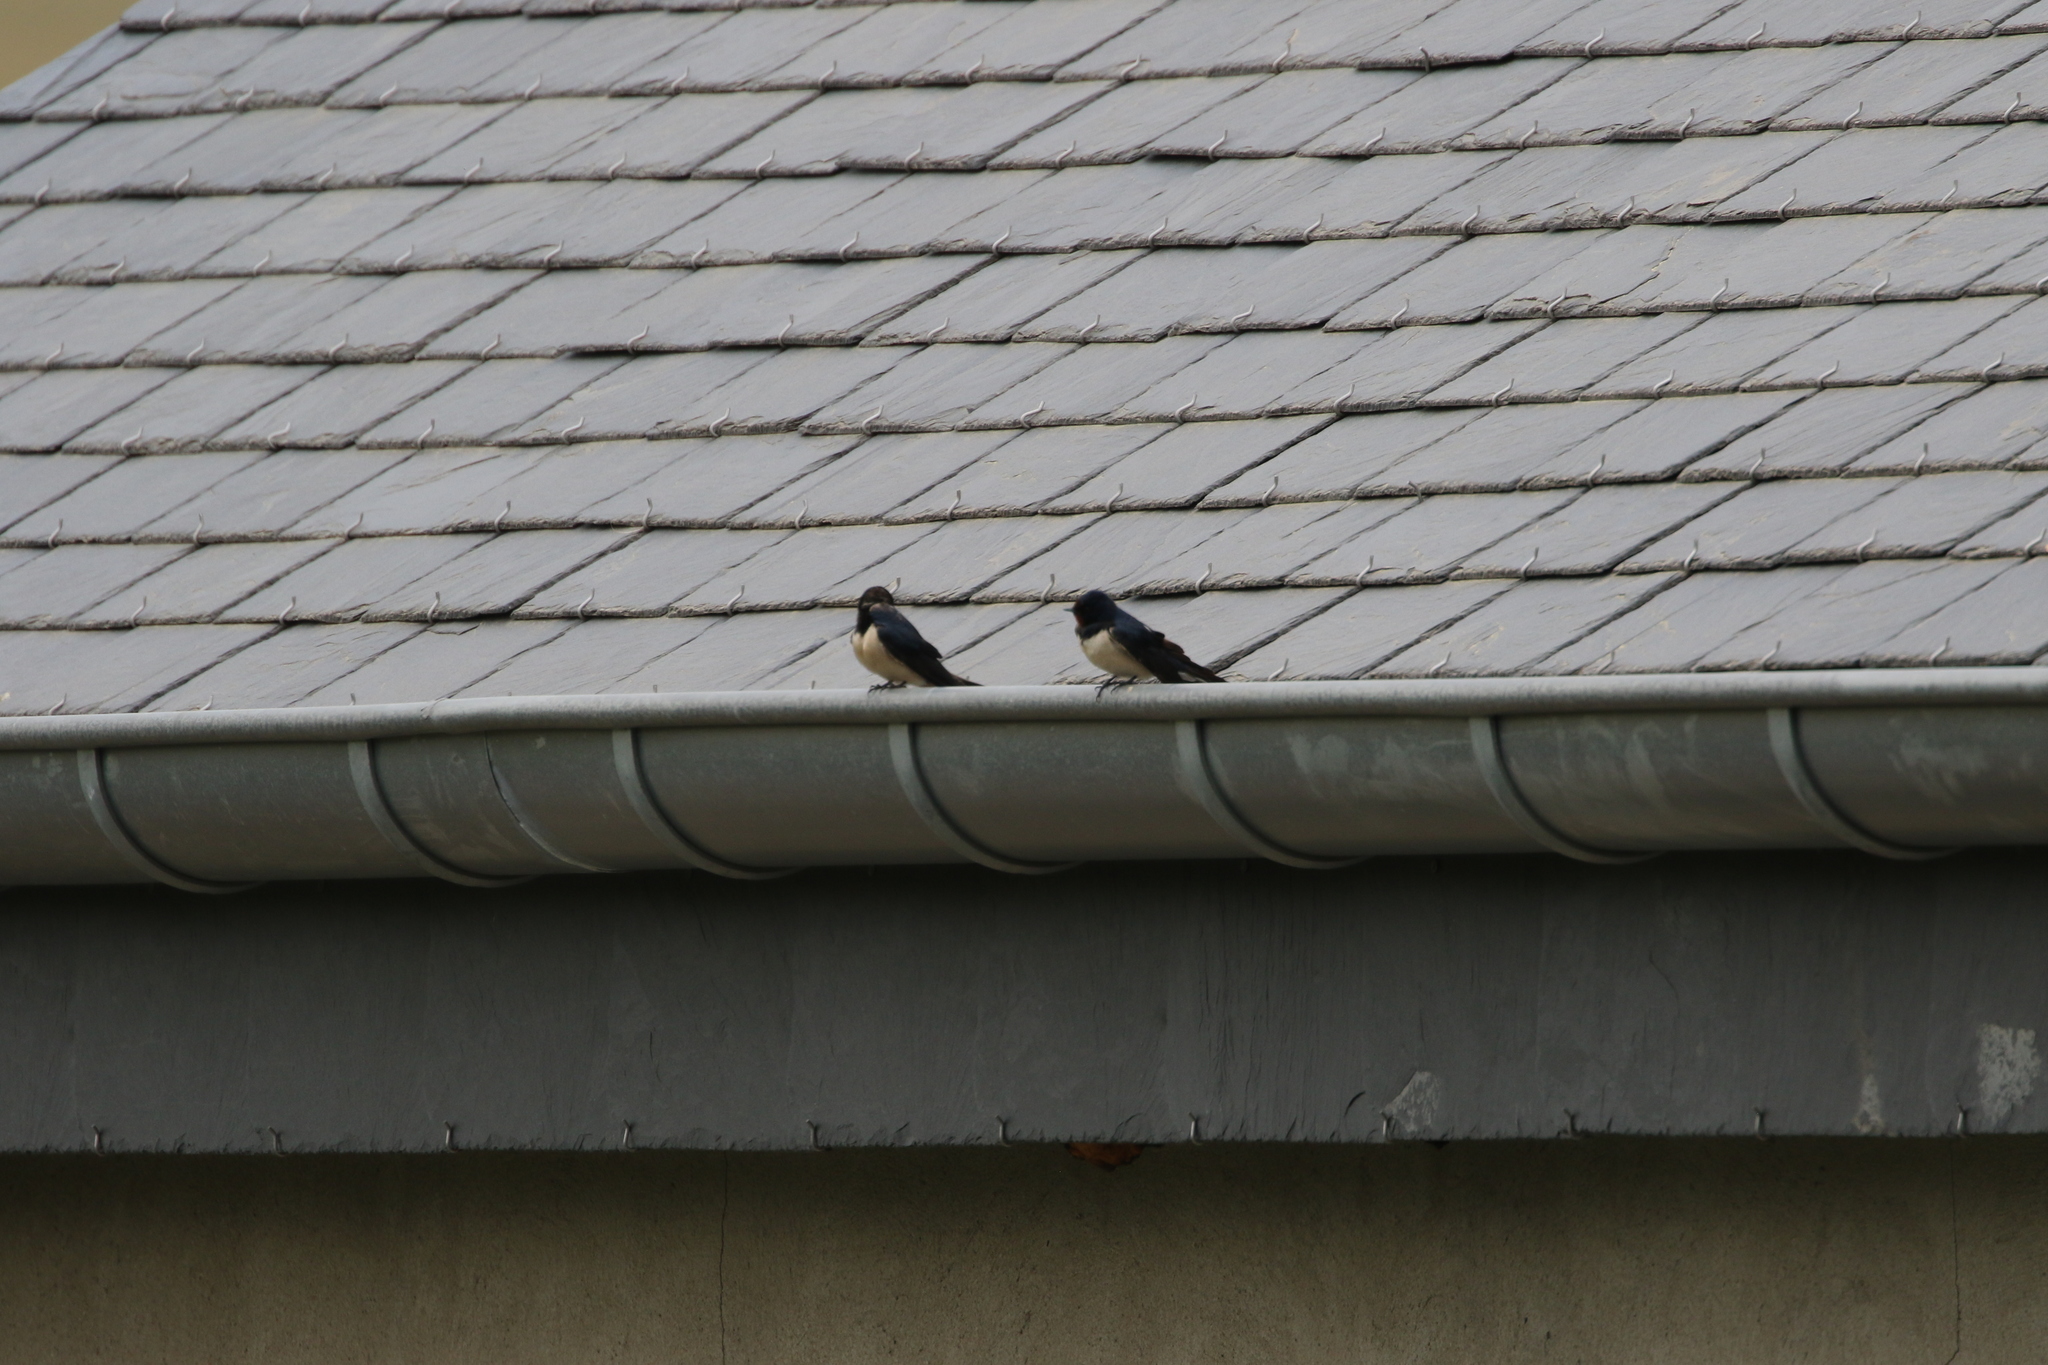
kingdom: Animalia
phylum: Chordata
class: Aves
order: Passeriformes
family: Hirundinidae
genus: Hirundo
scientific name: Hirundo rustica
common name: Barn swallow
